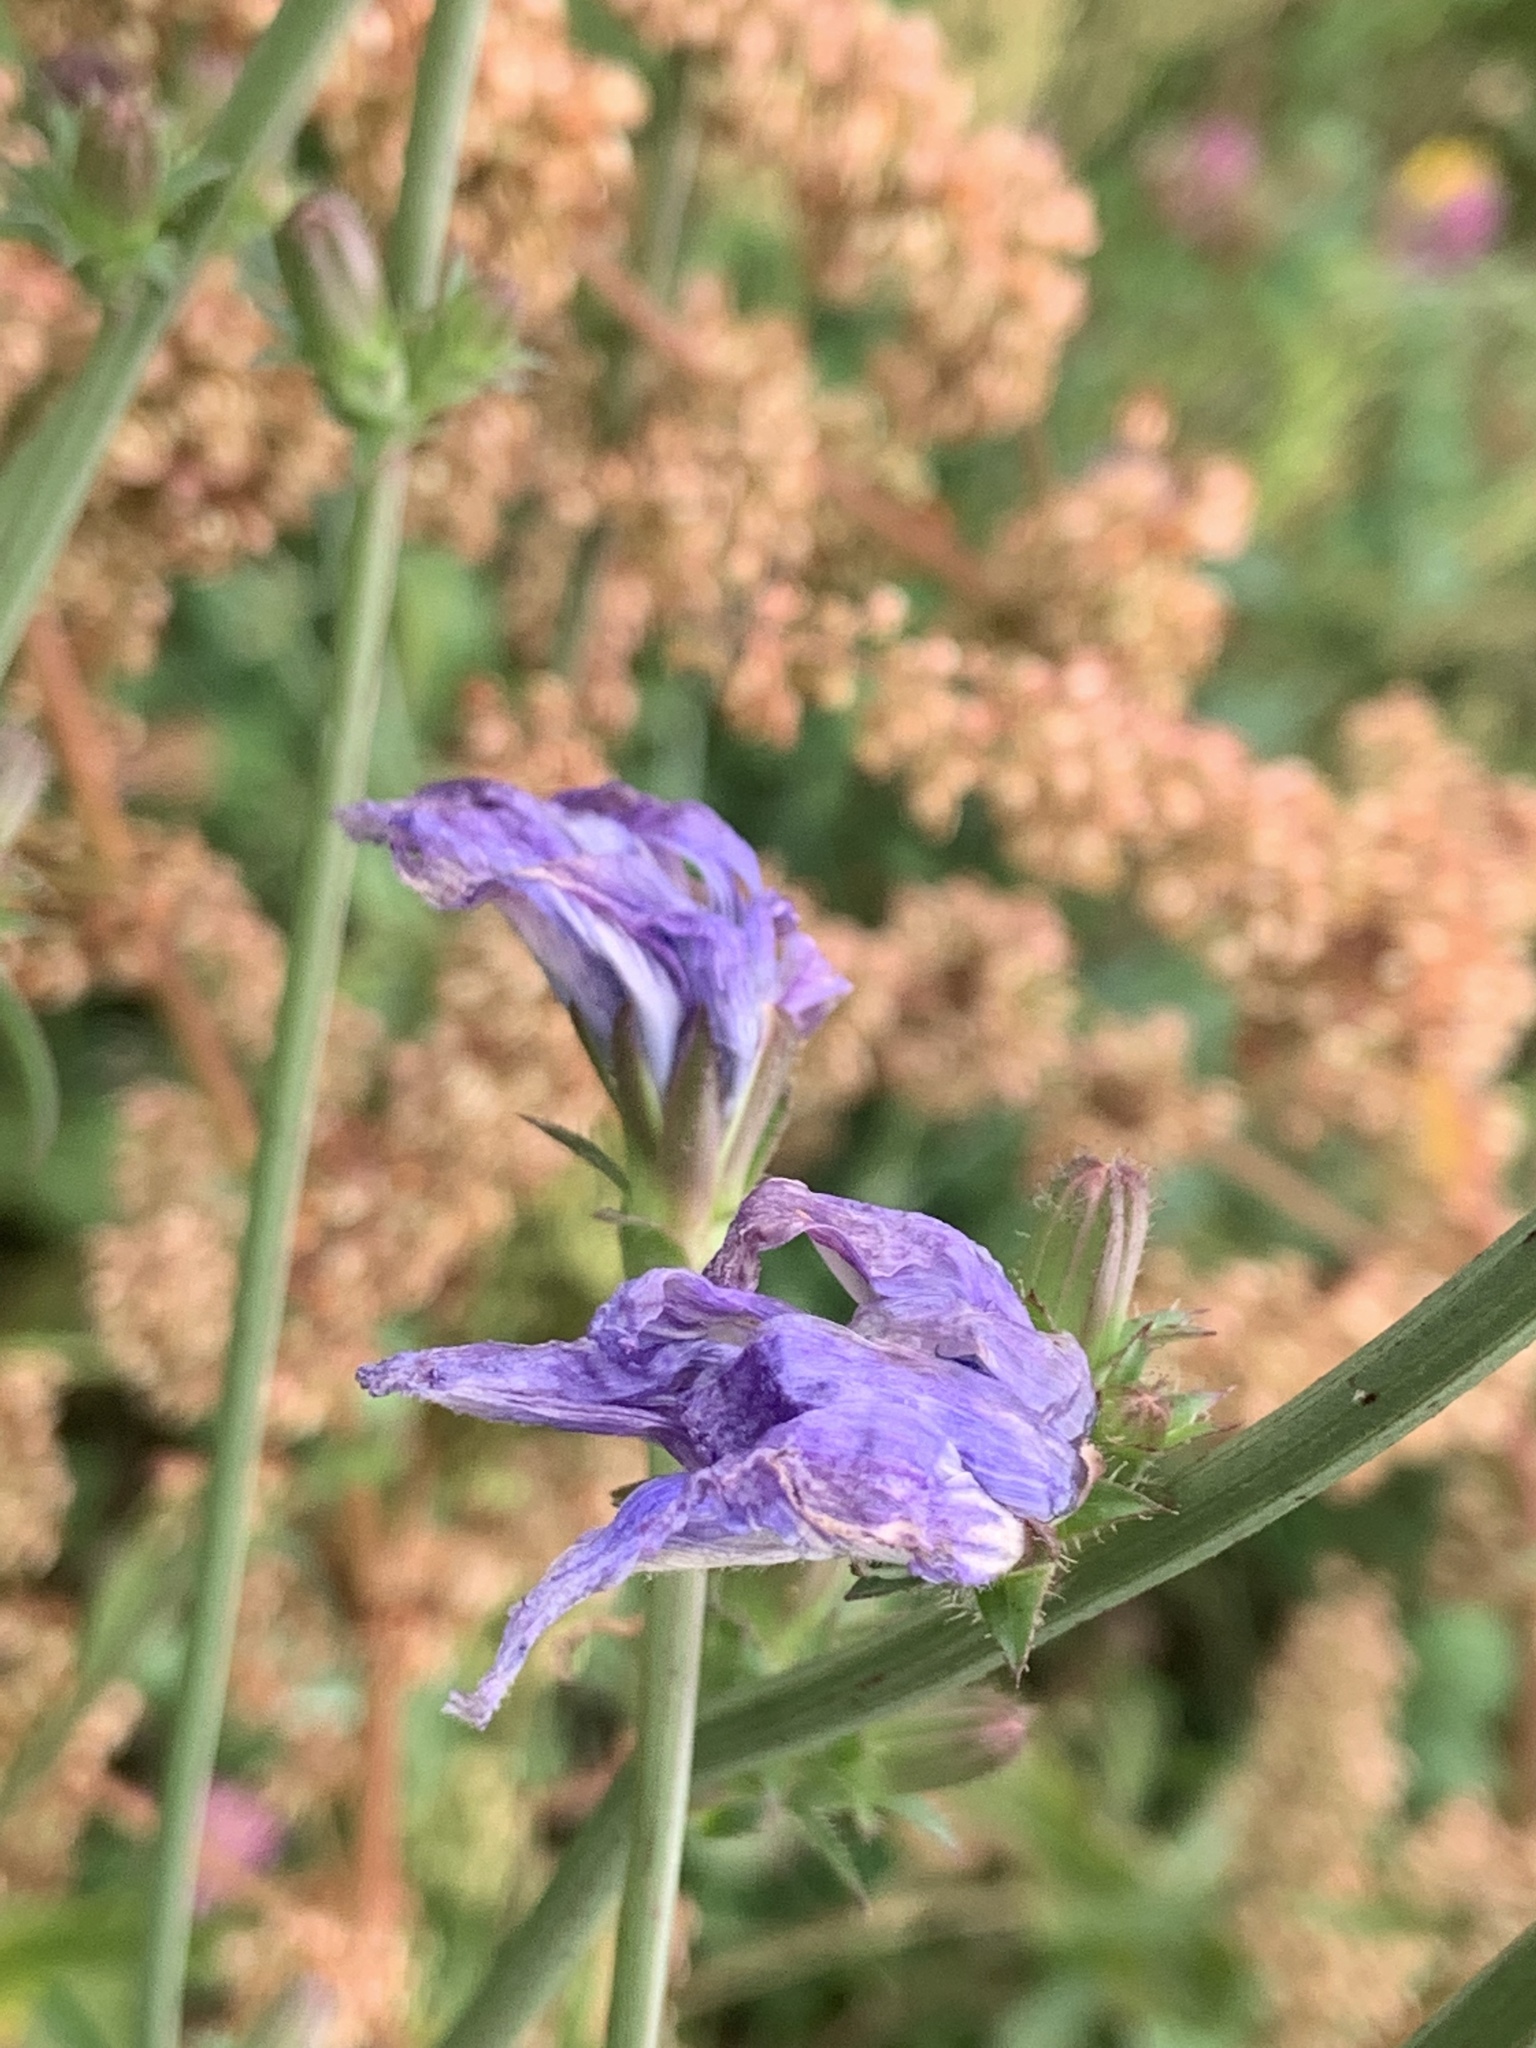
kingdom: Plantae
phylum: Tracheophyta
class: Magnoliopsida
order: Asterales
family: Asteraceae
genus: Cichorium
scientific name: Cichorium intybus
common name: Chicory
